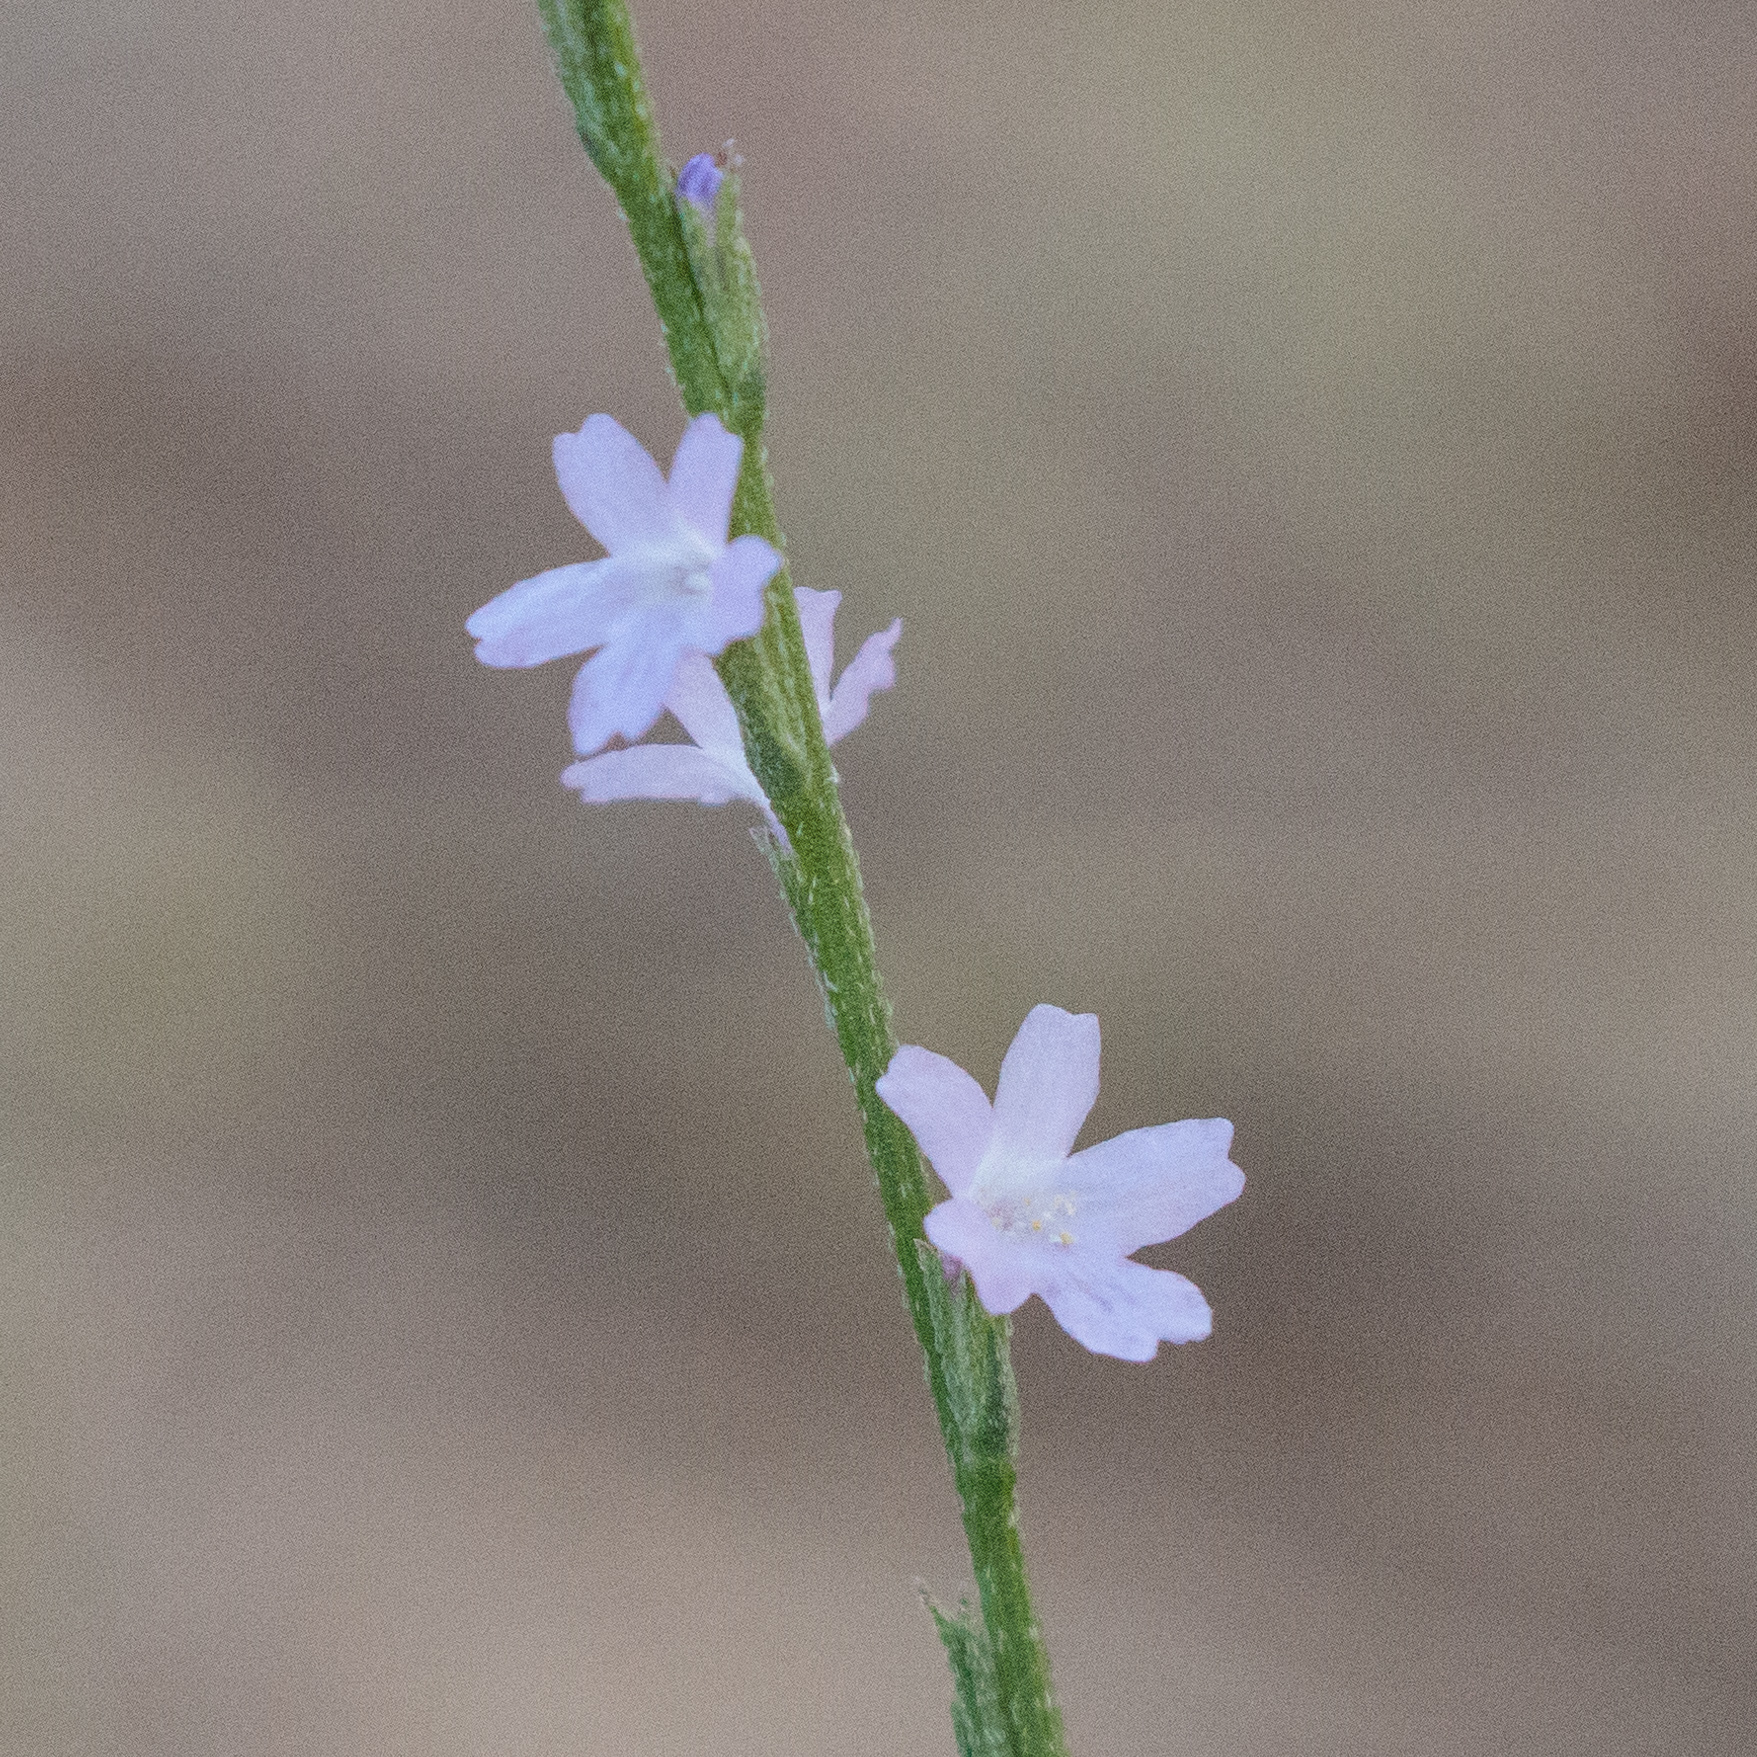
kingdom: Plantae
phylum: Tracheophyta
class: Magnoliopsida
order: Lamiales
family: Verbenaceae
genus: Verbena
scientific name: Verbena halei
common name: Texas vervain
